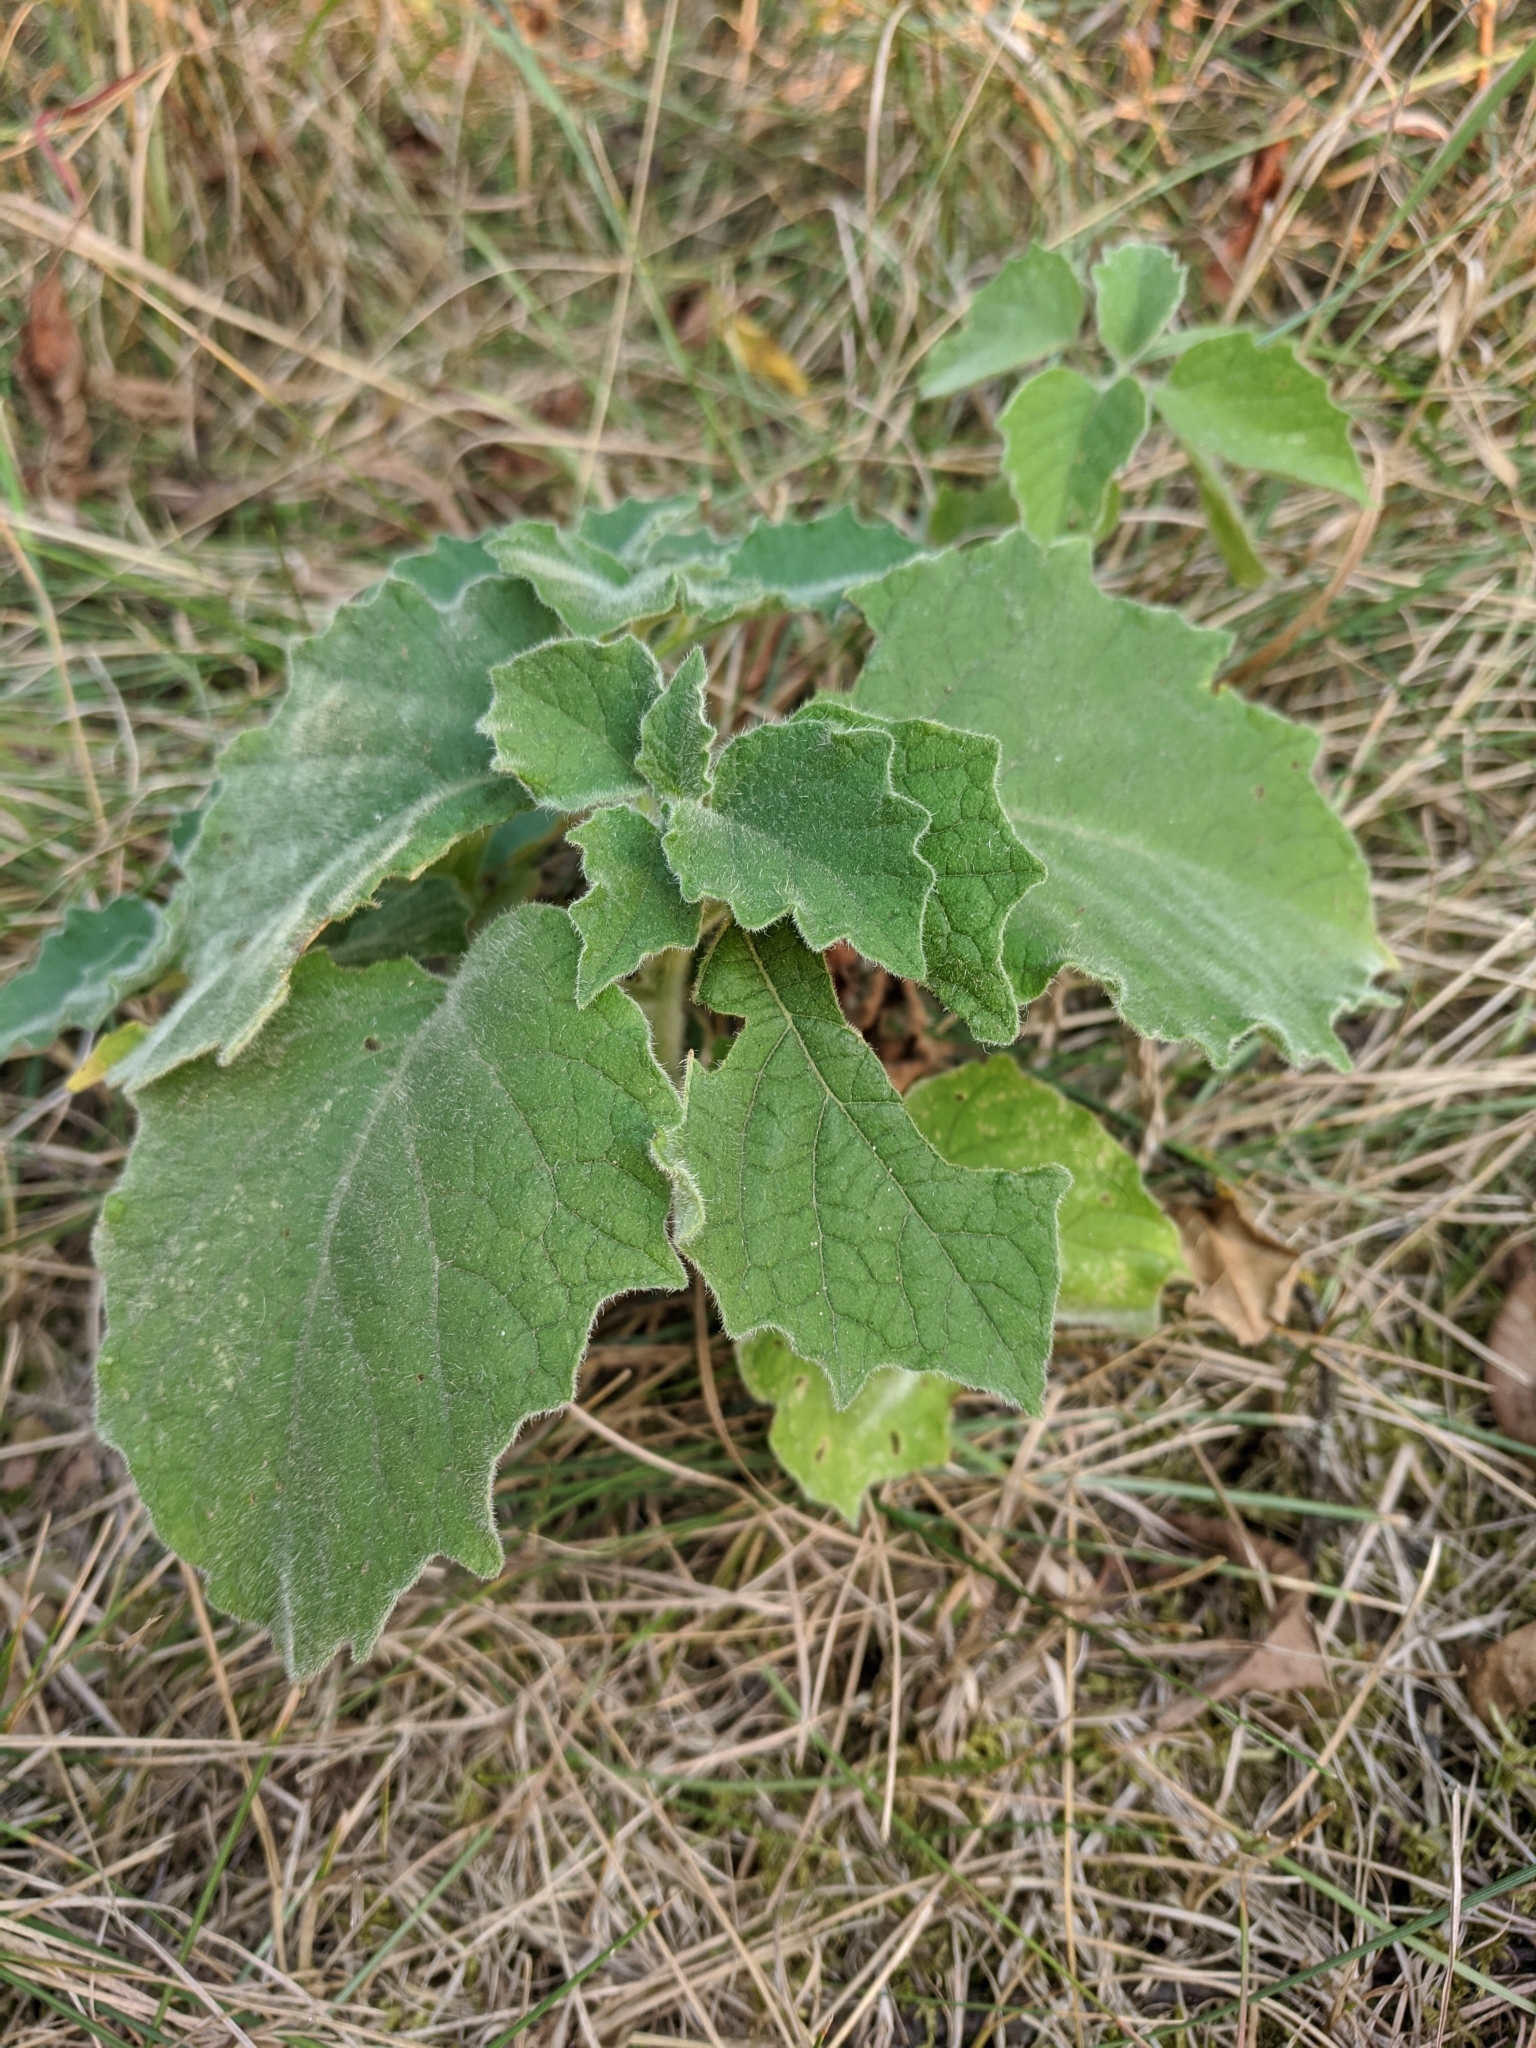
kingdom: Plantae
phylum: Tracheophyta
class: Magnoliopsida
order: Solanales
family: Solanaceae
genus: Physalis
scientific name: Physalis heterophylla
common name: Clammy ground-cherry
